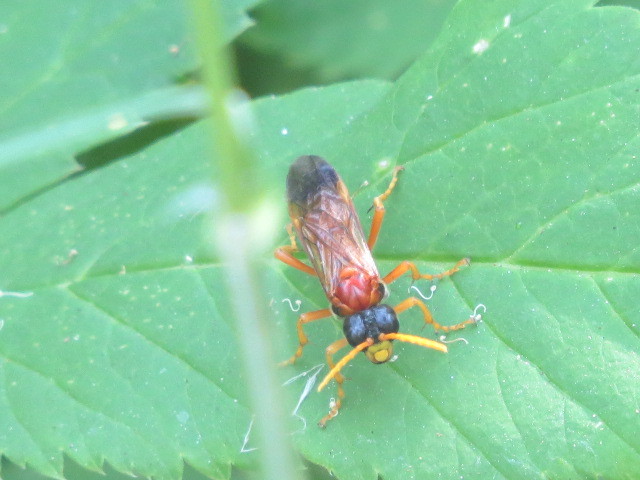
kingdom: Animalia
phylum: Arthropoda
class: Insecta
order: Hymenoptera
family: Tenthredinidae
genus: Tenthredo
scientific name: Tenthredo campestris
